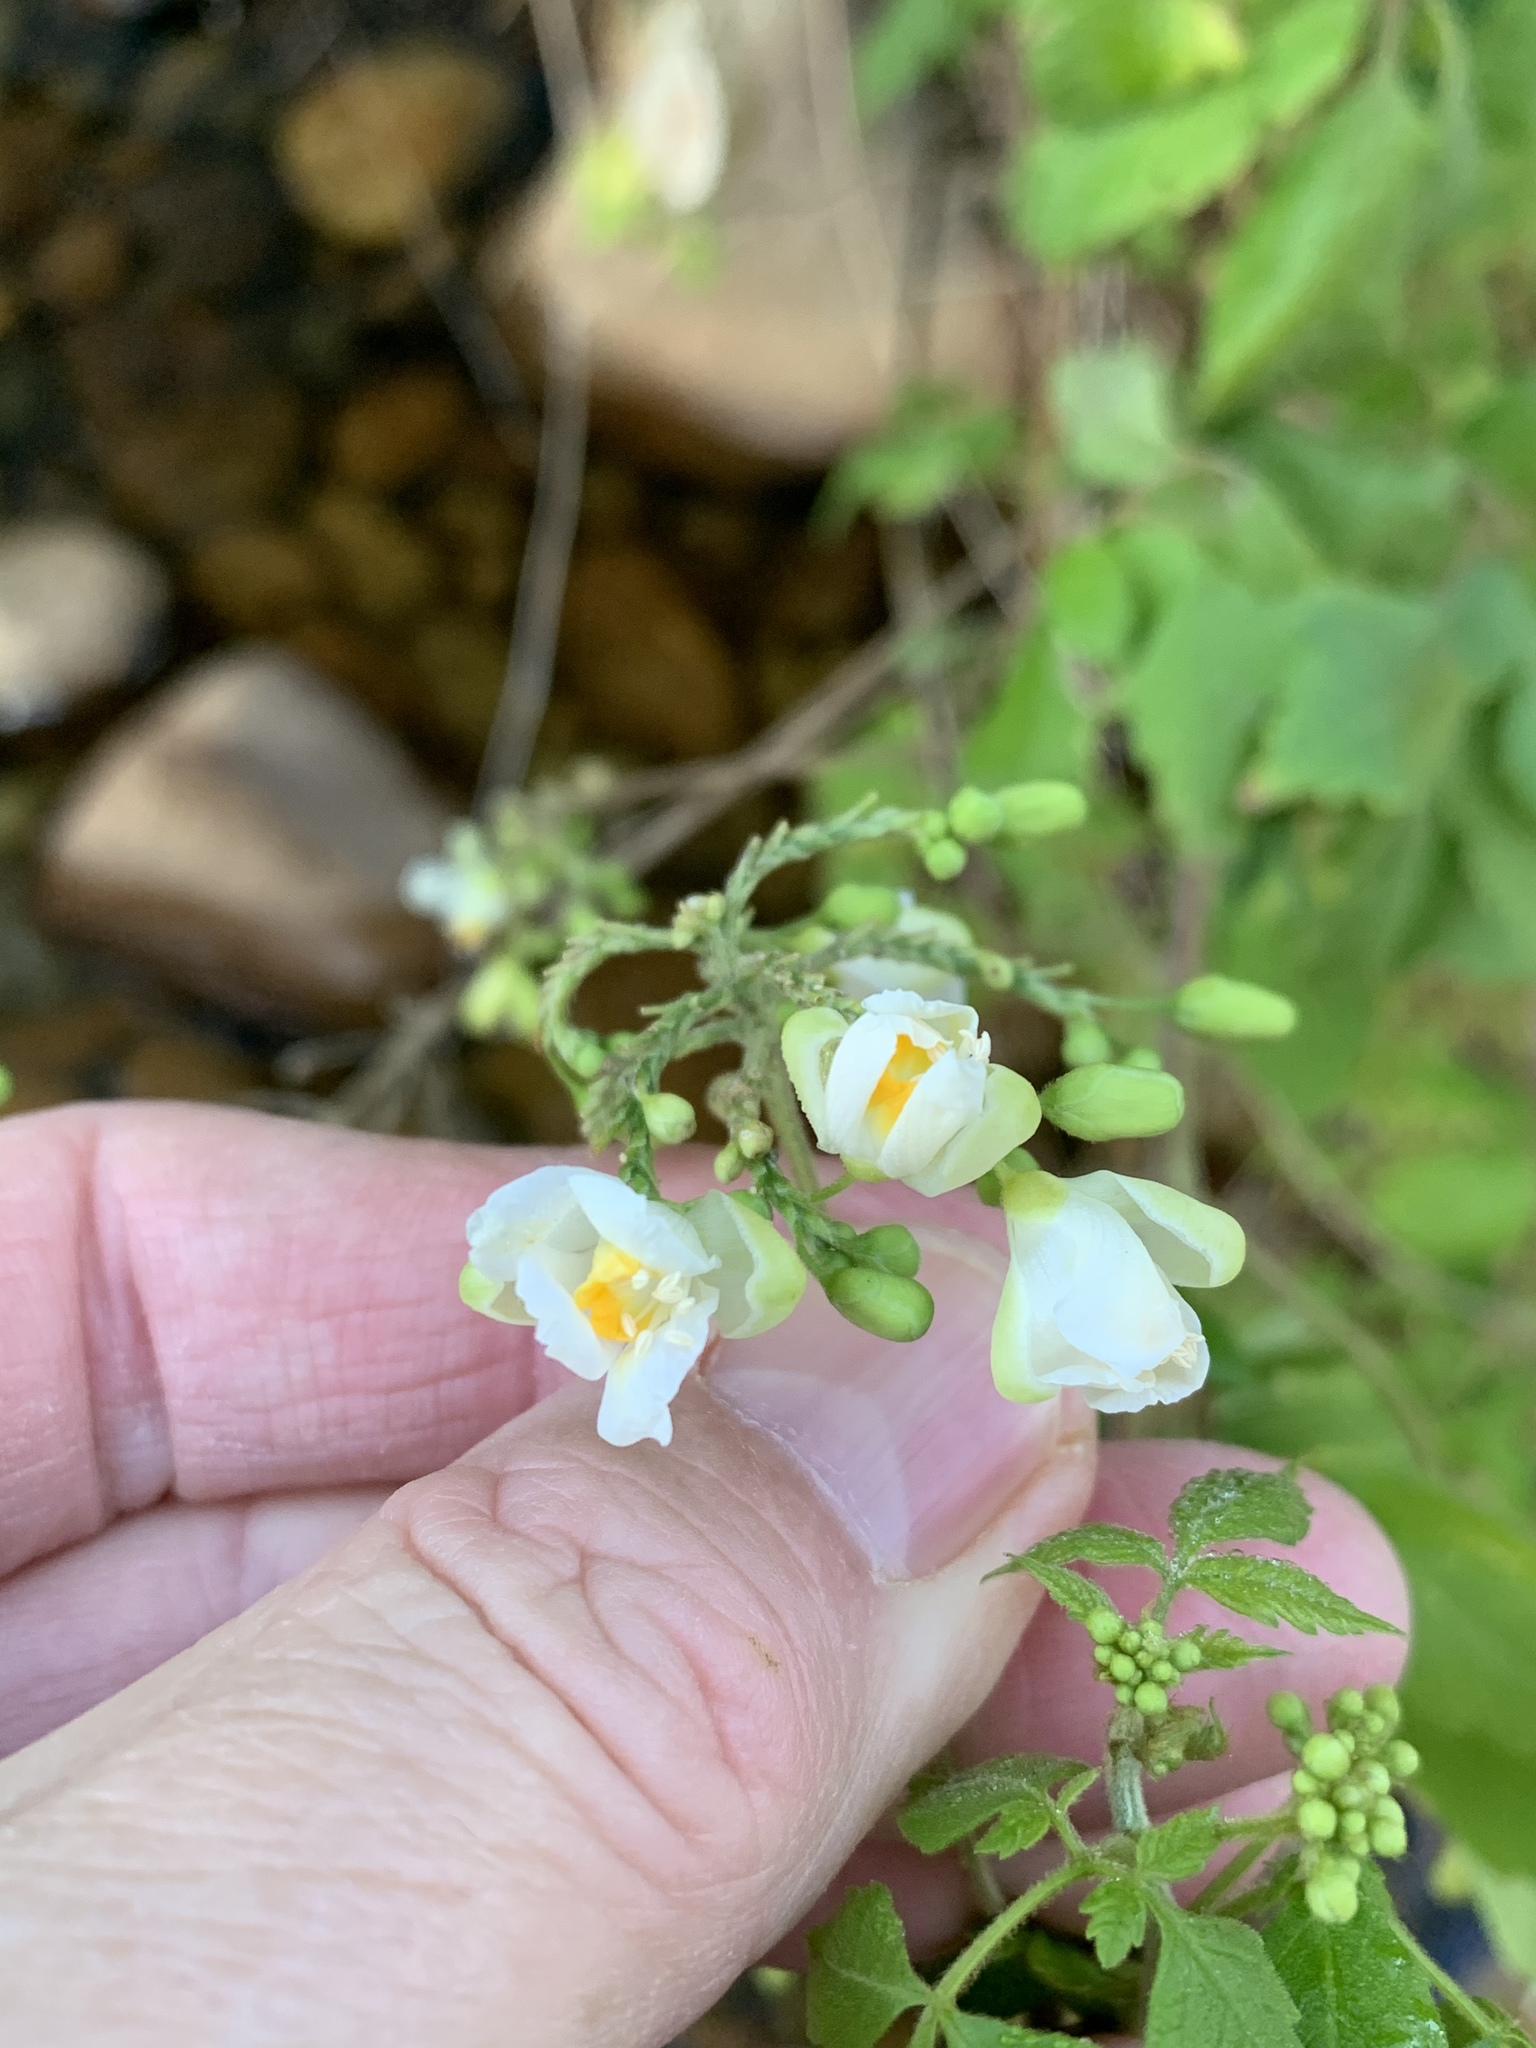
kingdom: Plantae
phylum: Tracheophyta
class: Magnoliopsida
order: Sapindales
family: Sapindaceae
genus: Cardiospermum
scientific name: Cardiospermum grandiflorum
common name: Balloon vine
